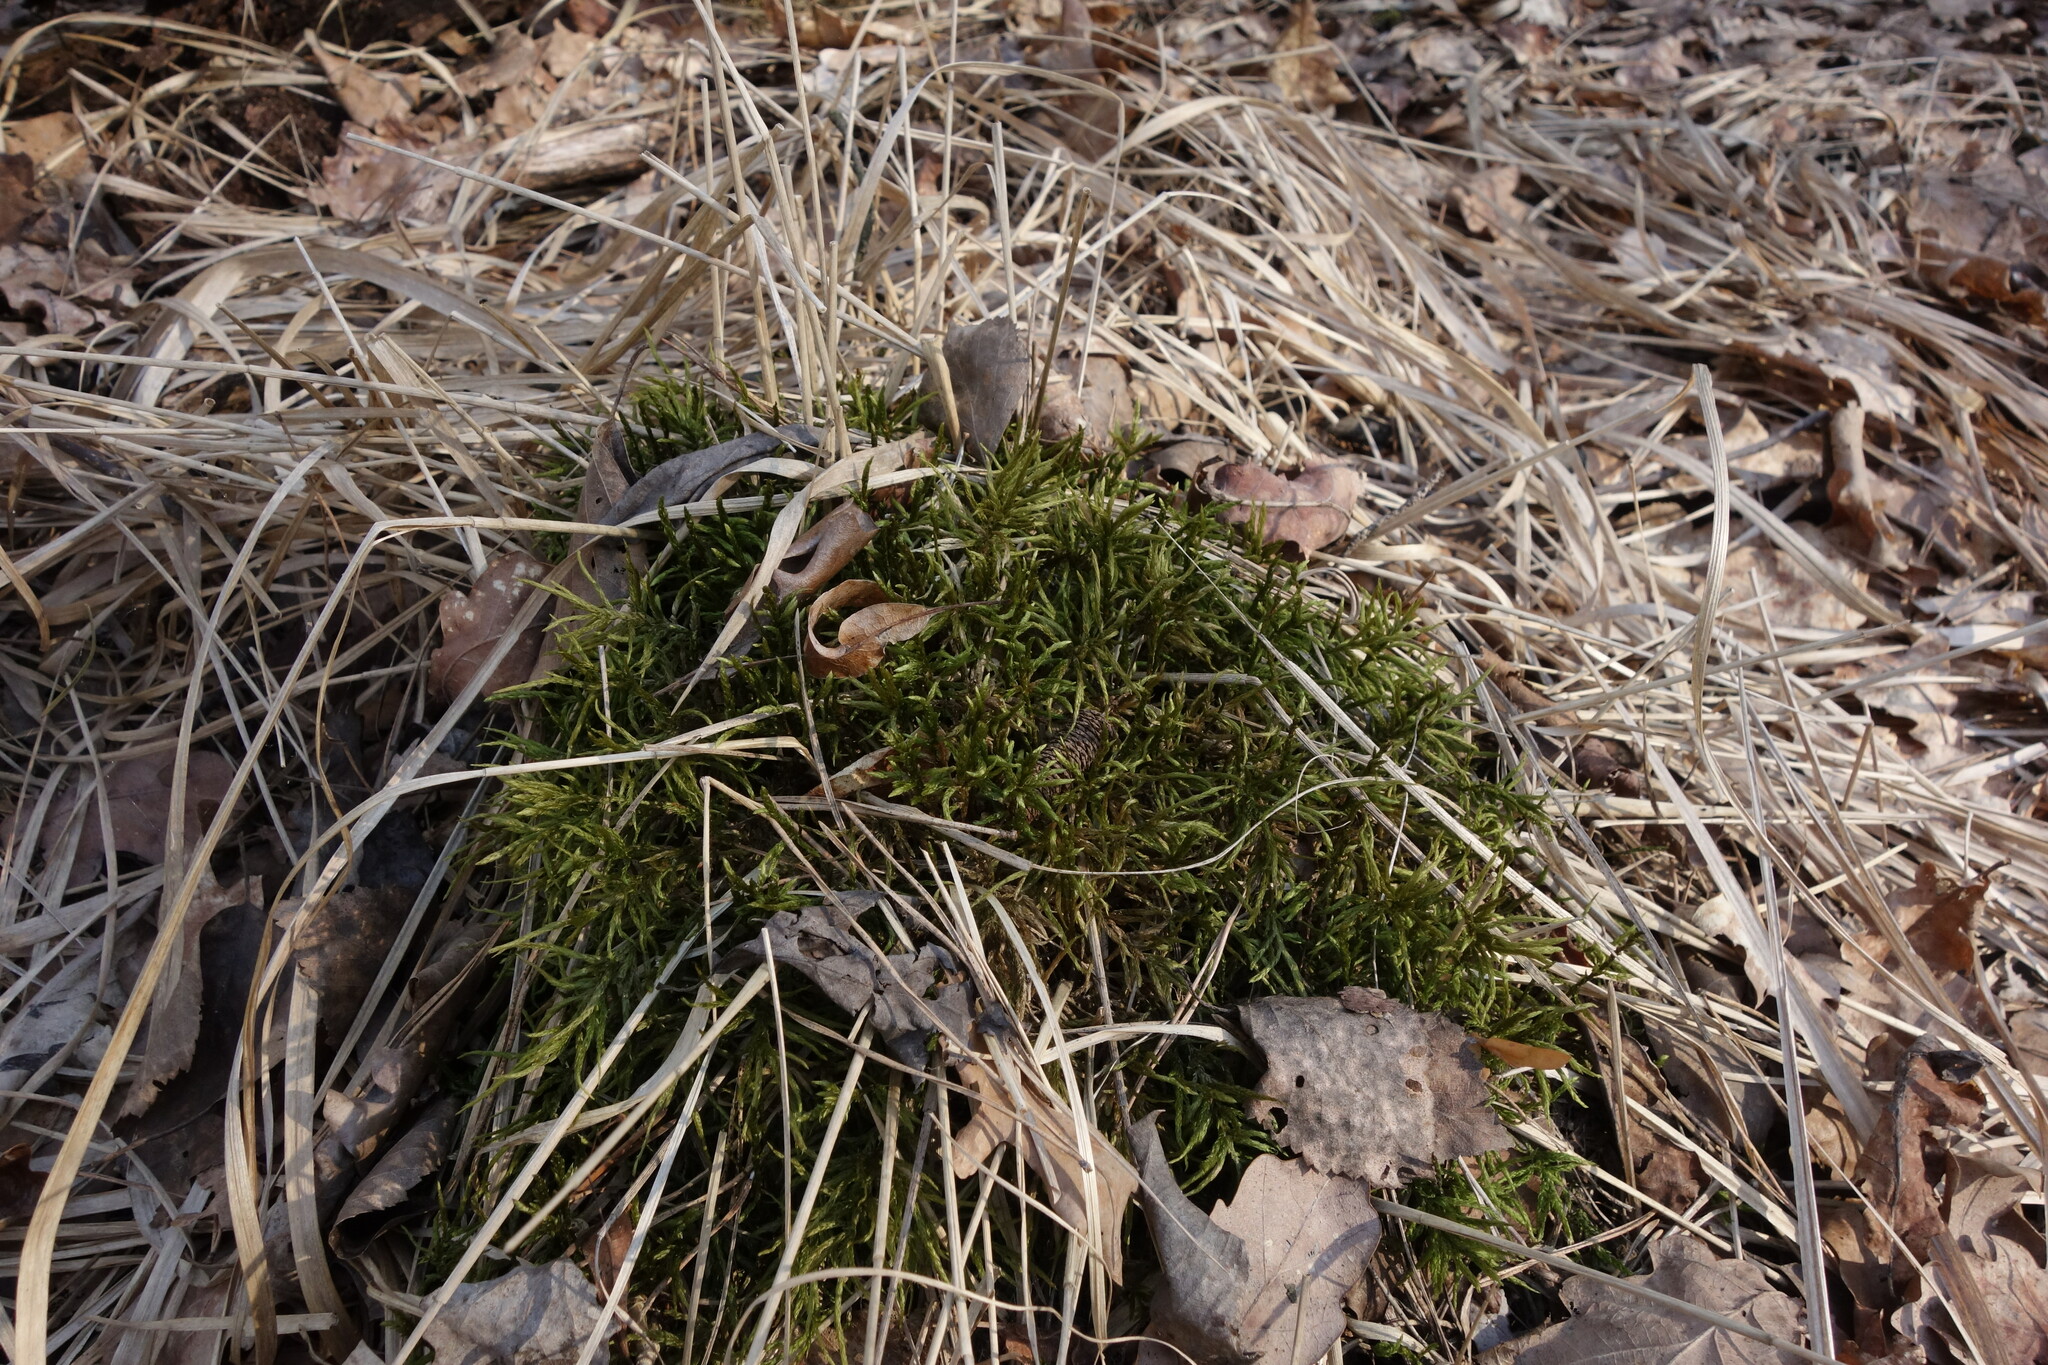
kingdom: Plantae
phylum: Bryophyta
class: Bryopsida
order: Hypnales
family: Climaciaceae
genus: Climacium
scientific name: Climacium dendroides
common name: Northern tree moss
